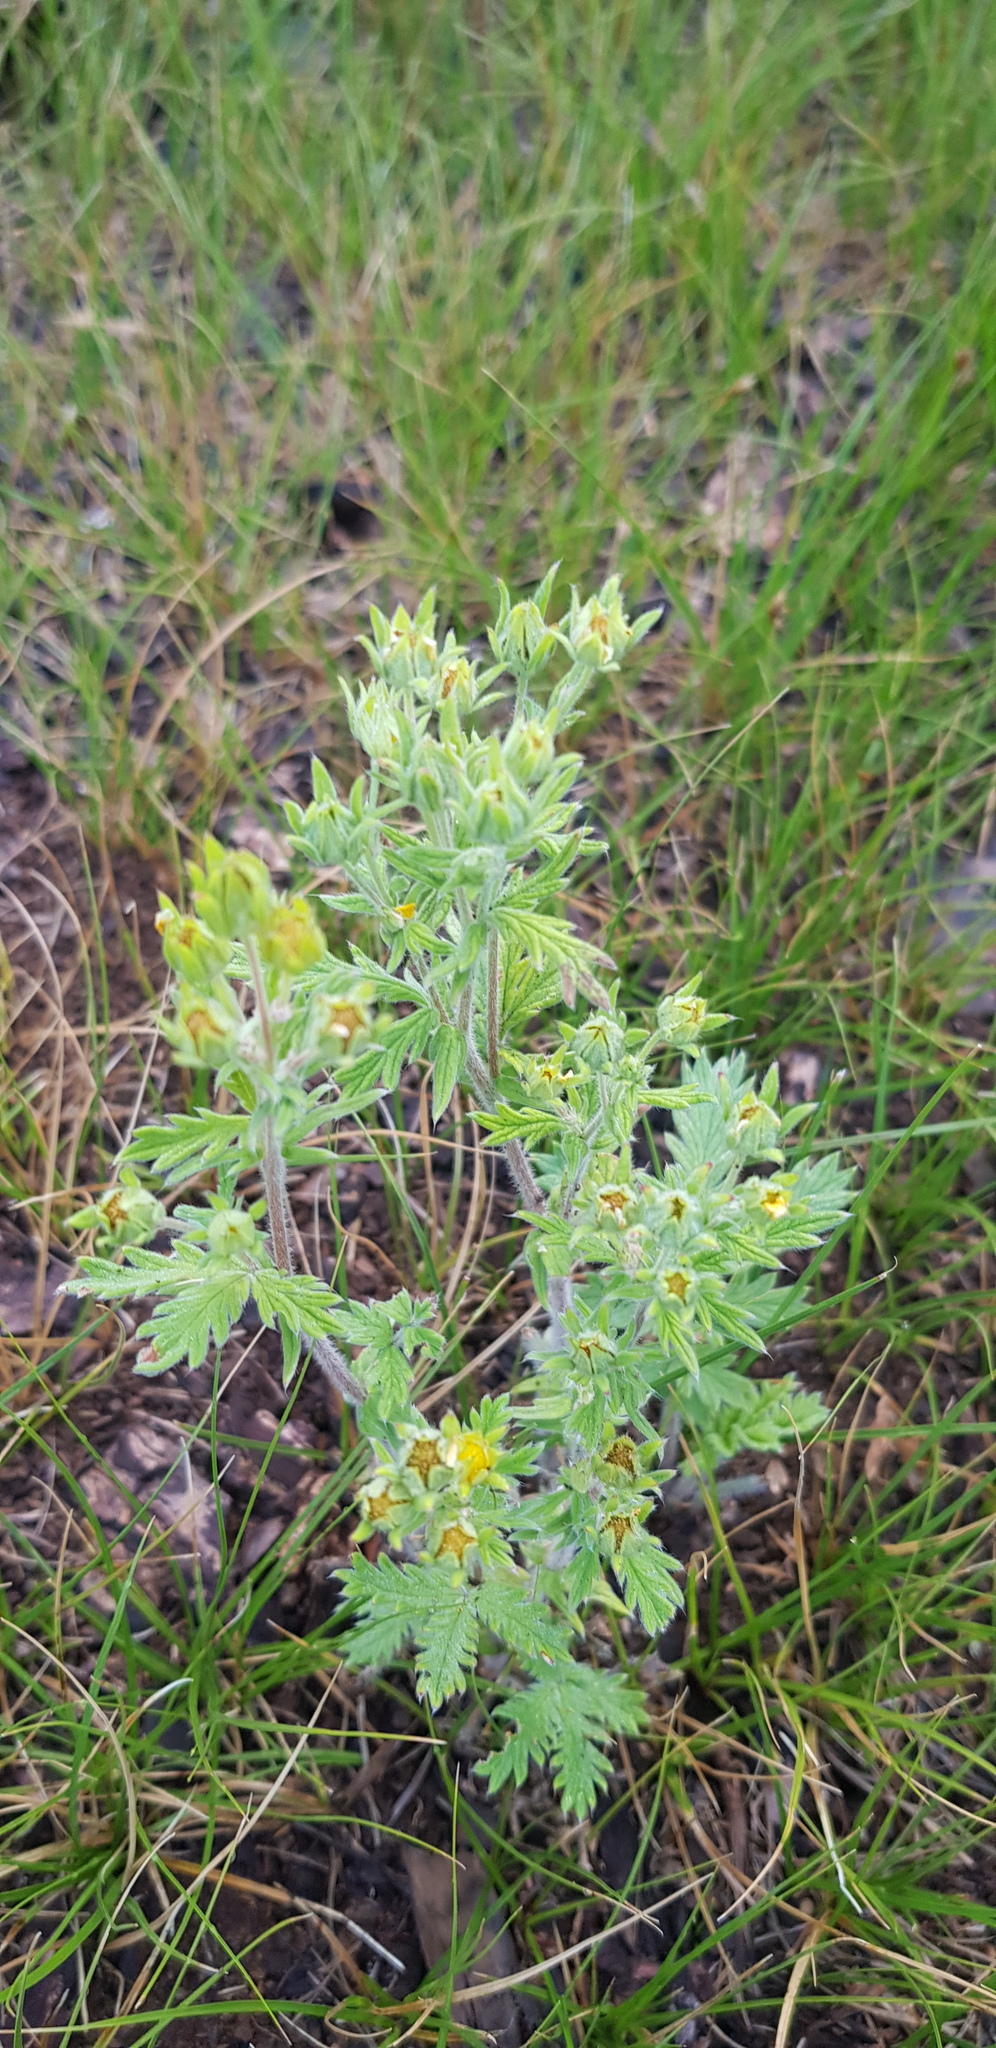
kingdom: Plantae
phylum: Tracheophyta
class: Magnoliopsida
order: Rosales
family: Rosaceae
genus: Potentilla
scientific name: Potentilla tanacetifolia
